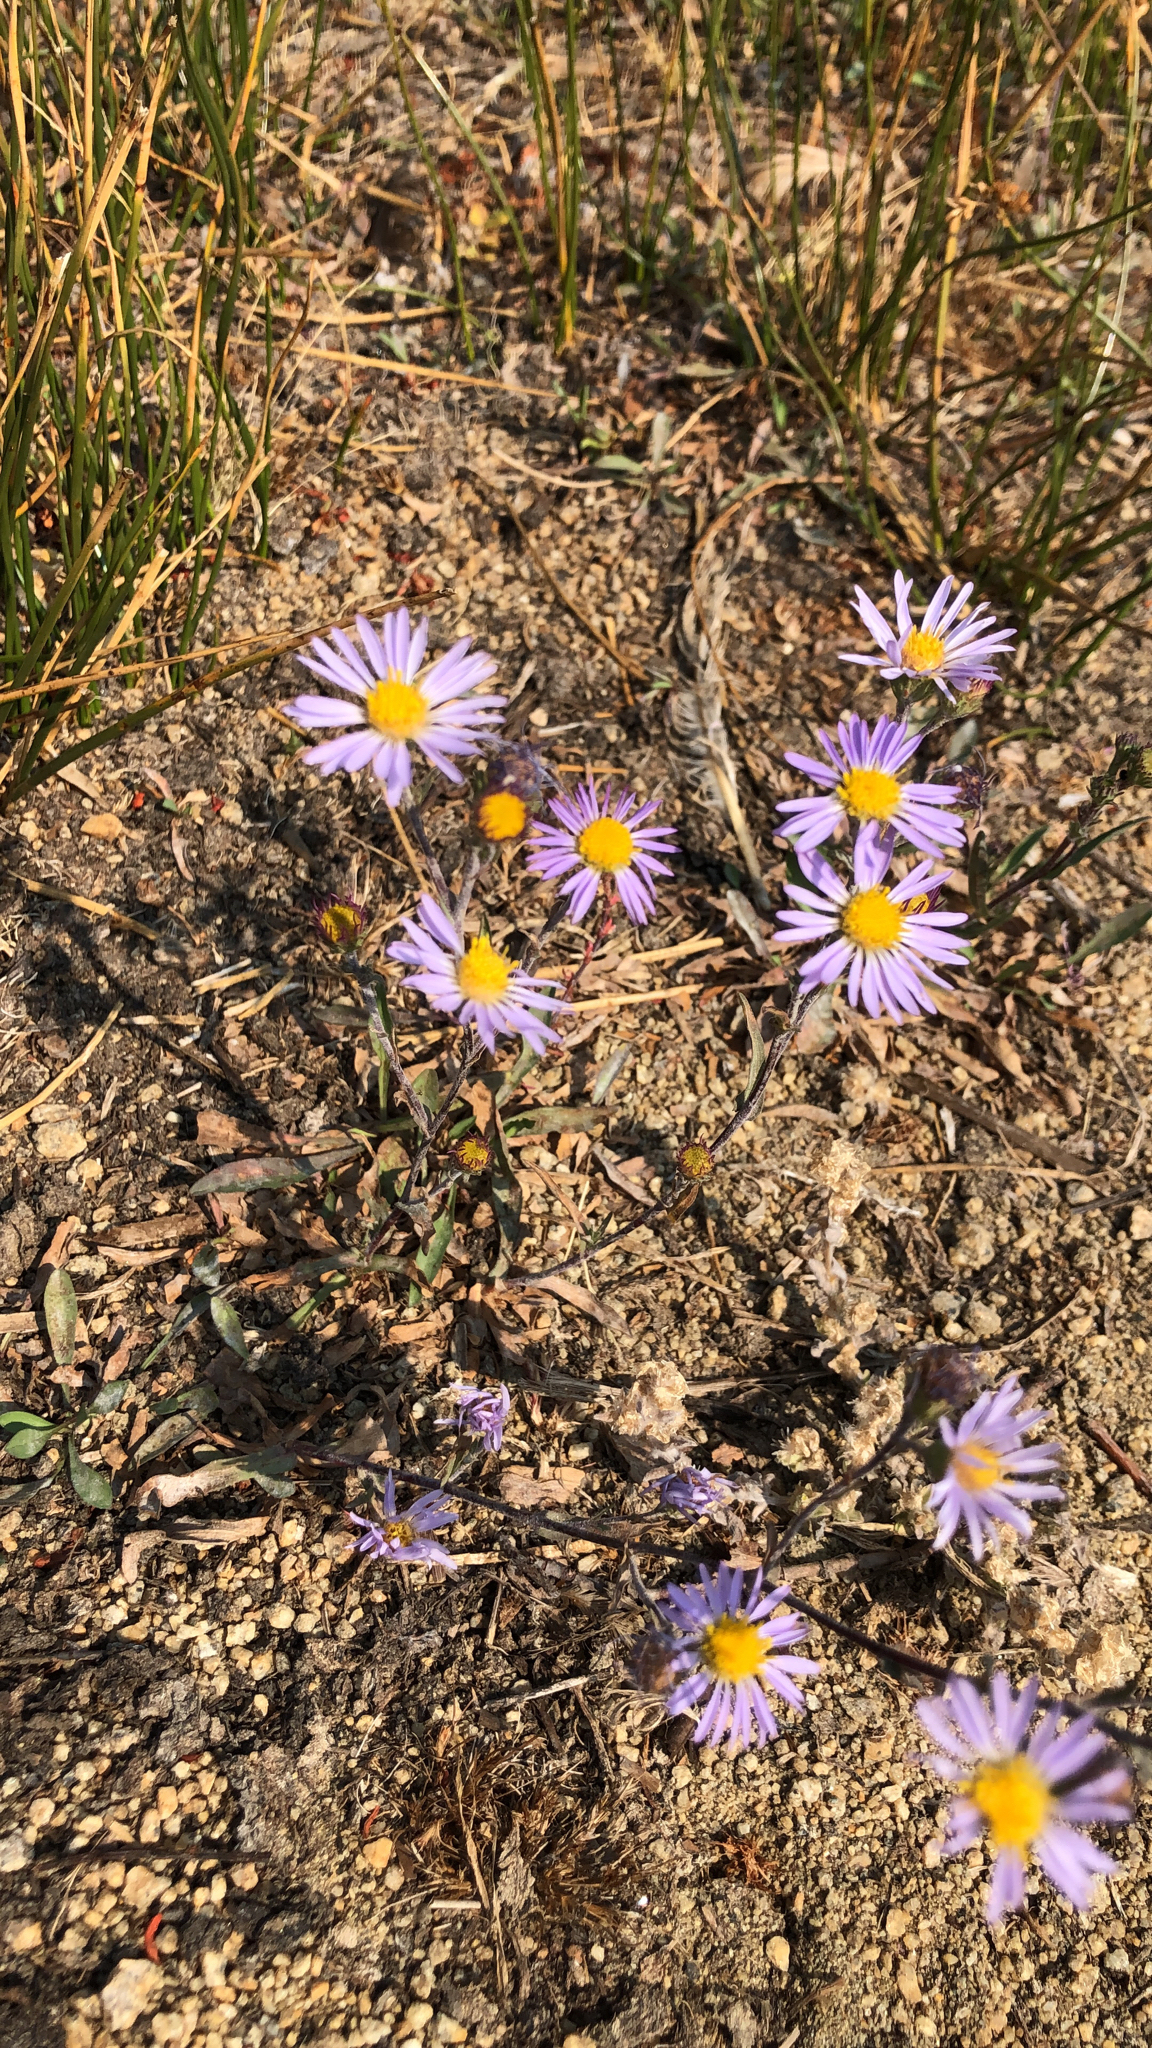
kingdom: Plantae
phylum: Tracheophyta
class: Magnoliopsida
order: Asterales
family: Asteraceae
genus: Dieteria
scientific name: Dieteria canescens
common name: Hoary-aster
